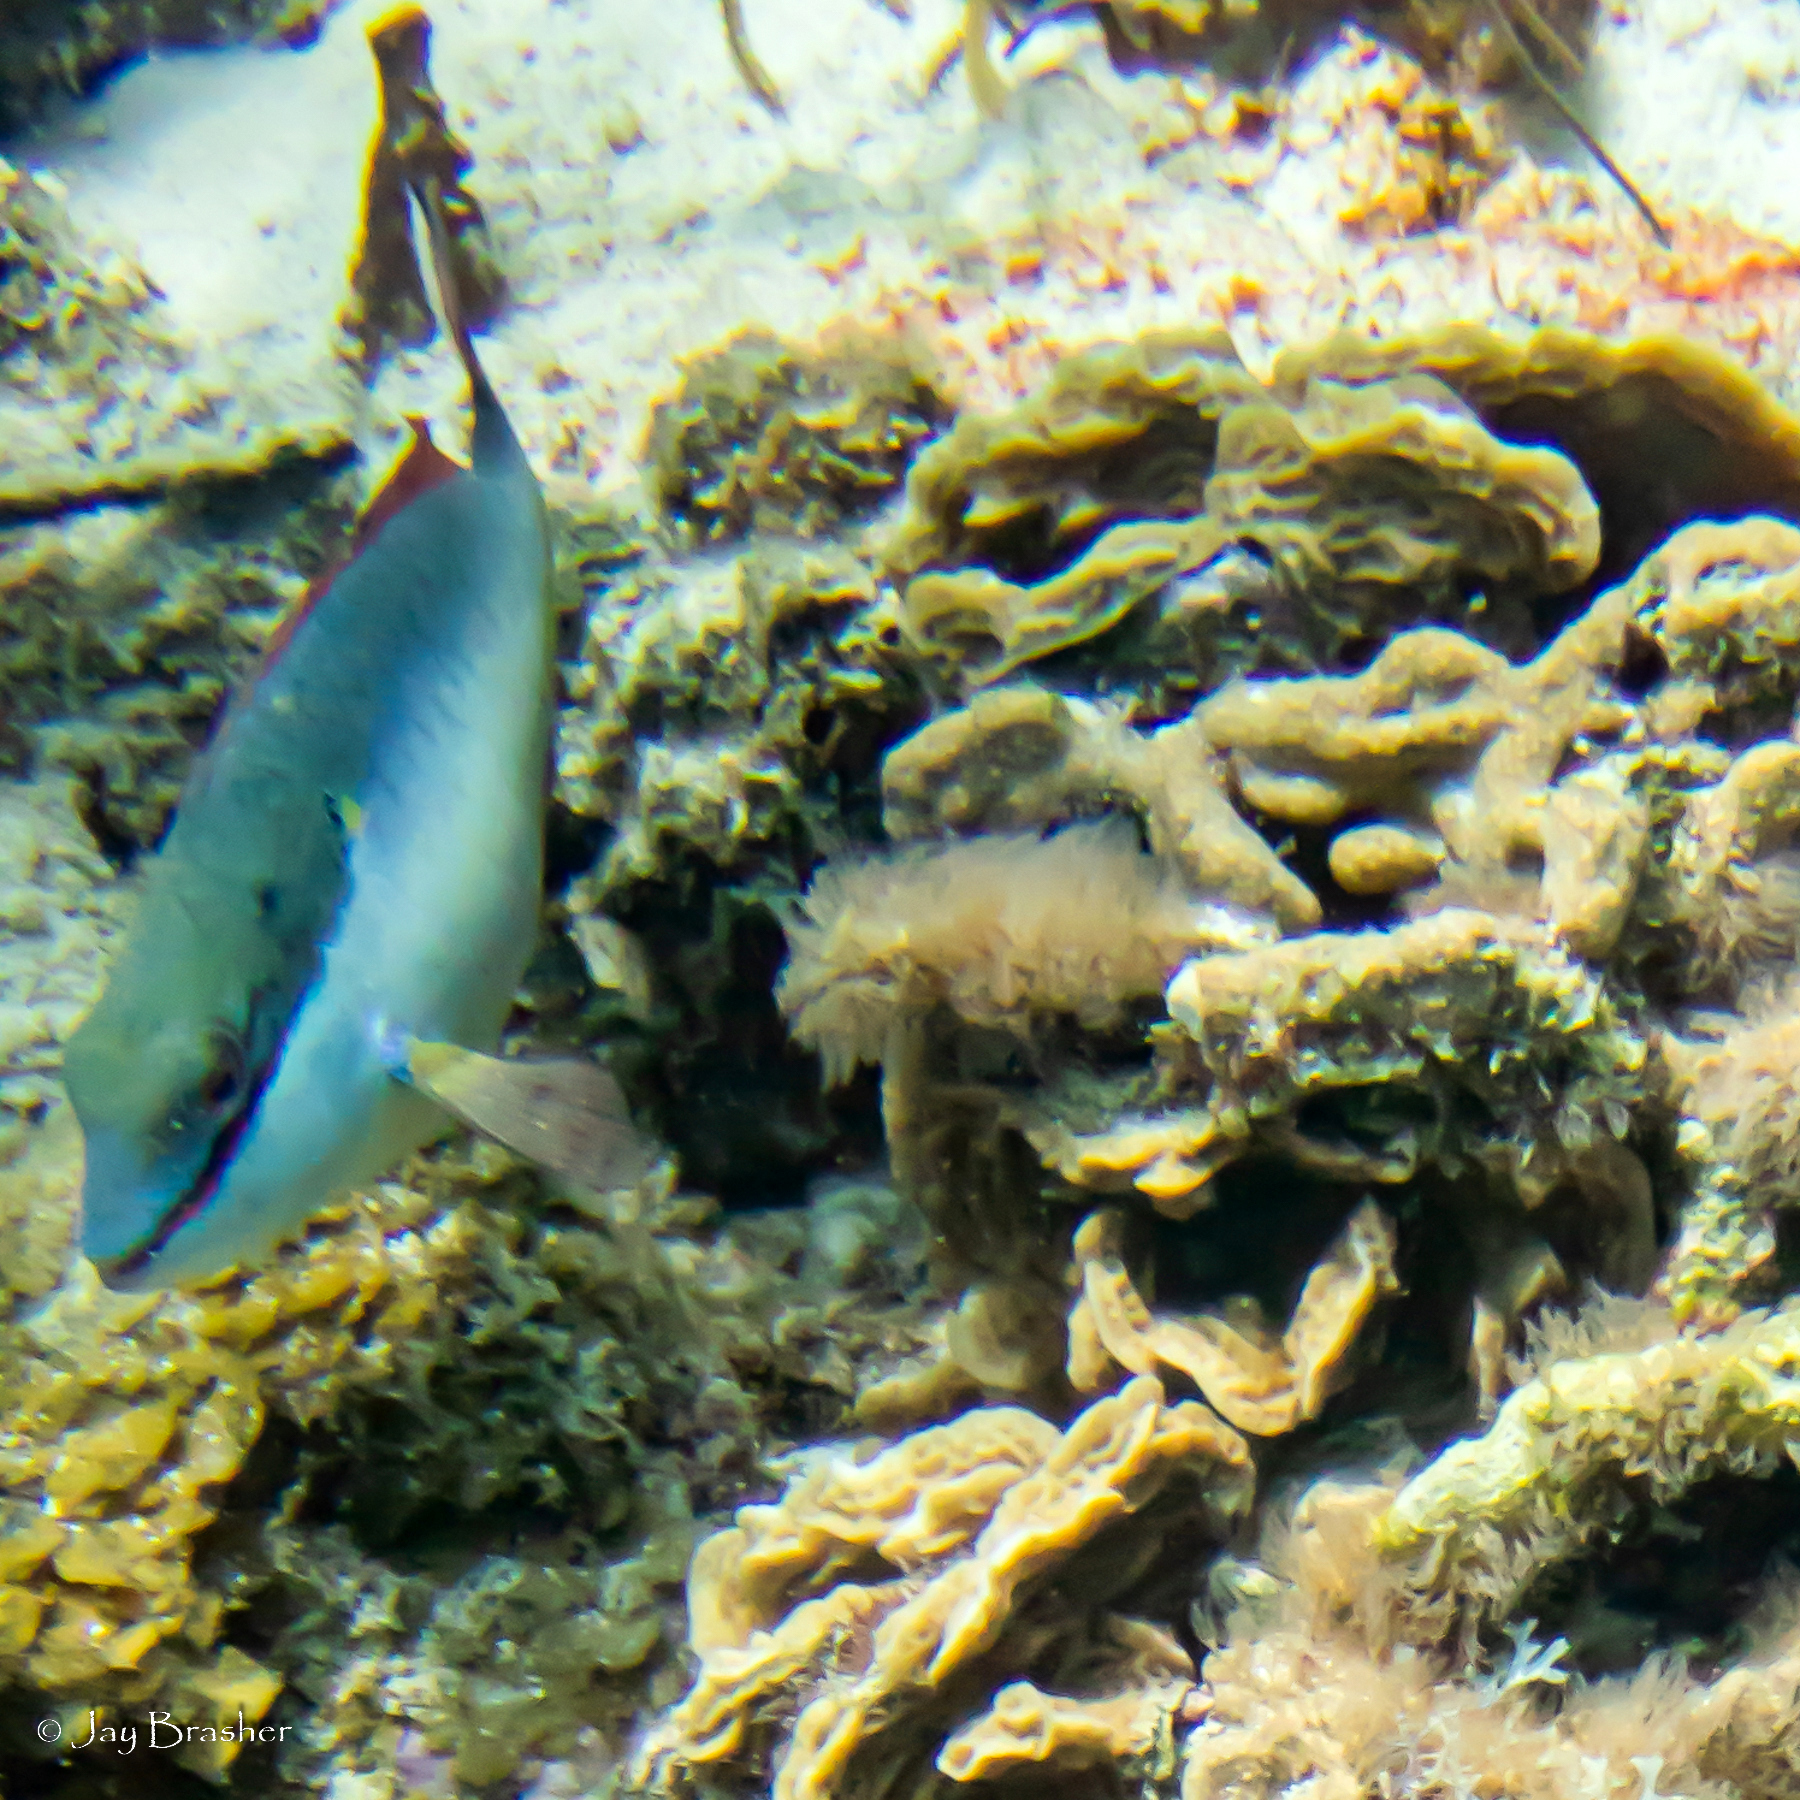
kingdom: Animalia
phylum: Chordata
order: Perciformes
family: Scaridae
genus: Sparisoma
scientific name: Sparisoma aurofrenatum
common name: Redband parrotfish
